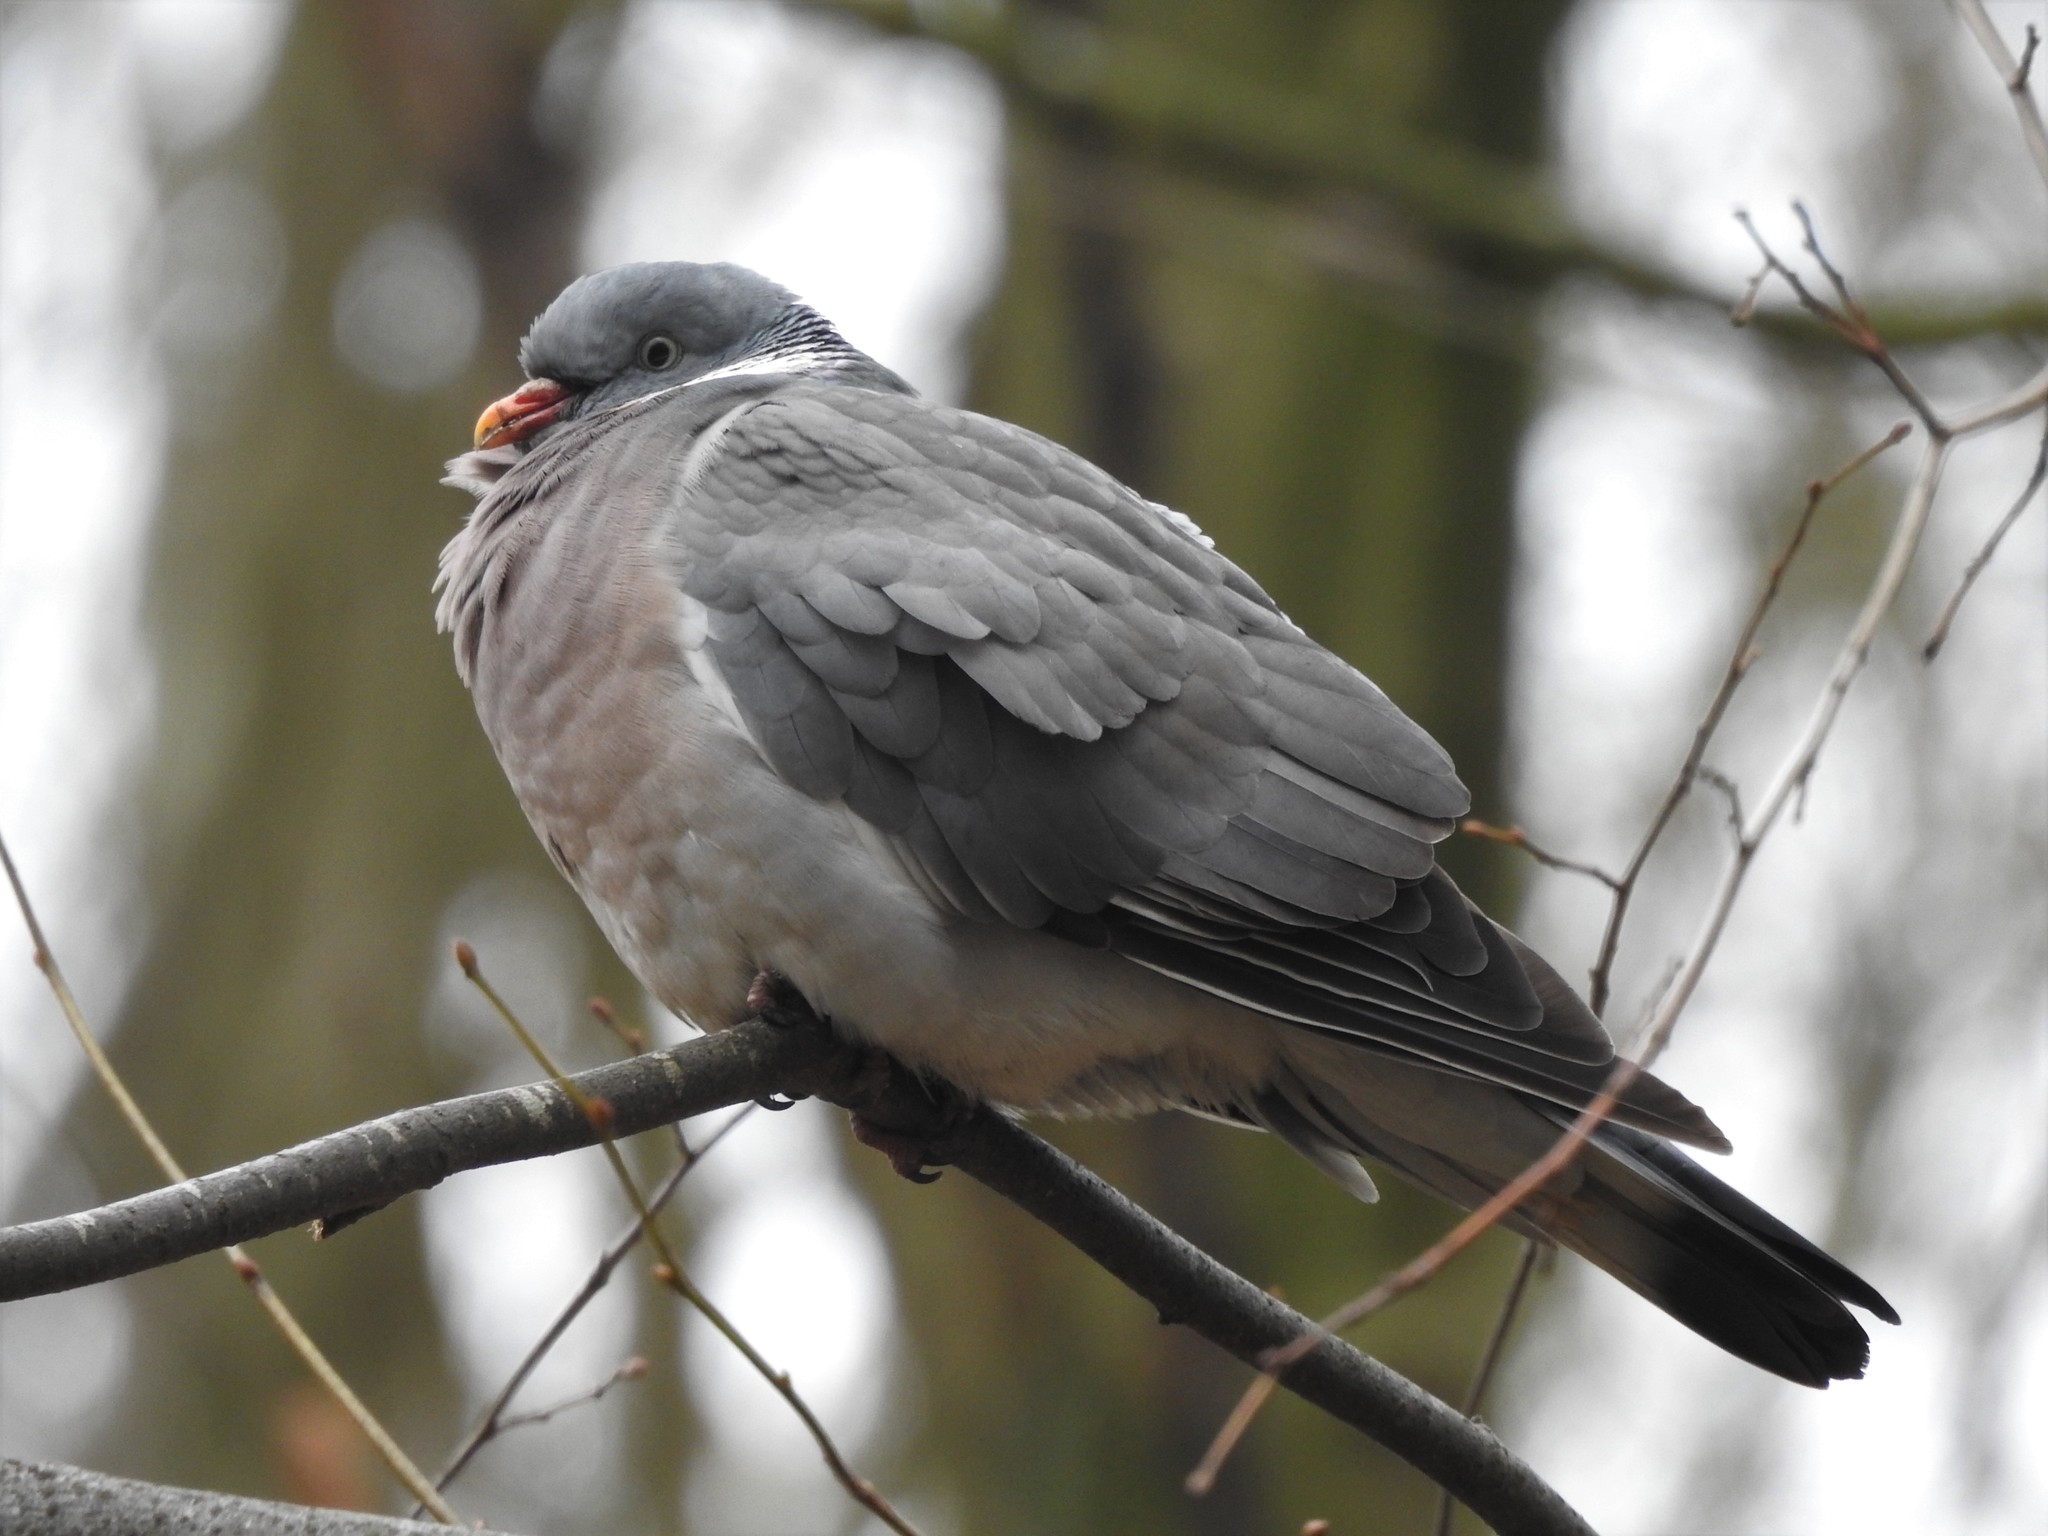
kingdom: Animalia
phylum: Chordata
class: Aves
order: Columbiformes
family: Columbidae
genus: Columba
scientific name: Columba palumbus
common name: Common wood pigeon
